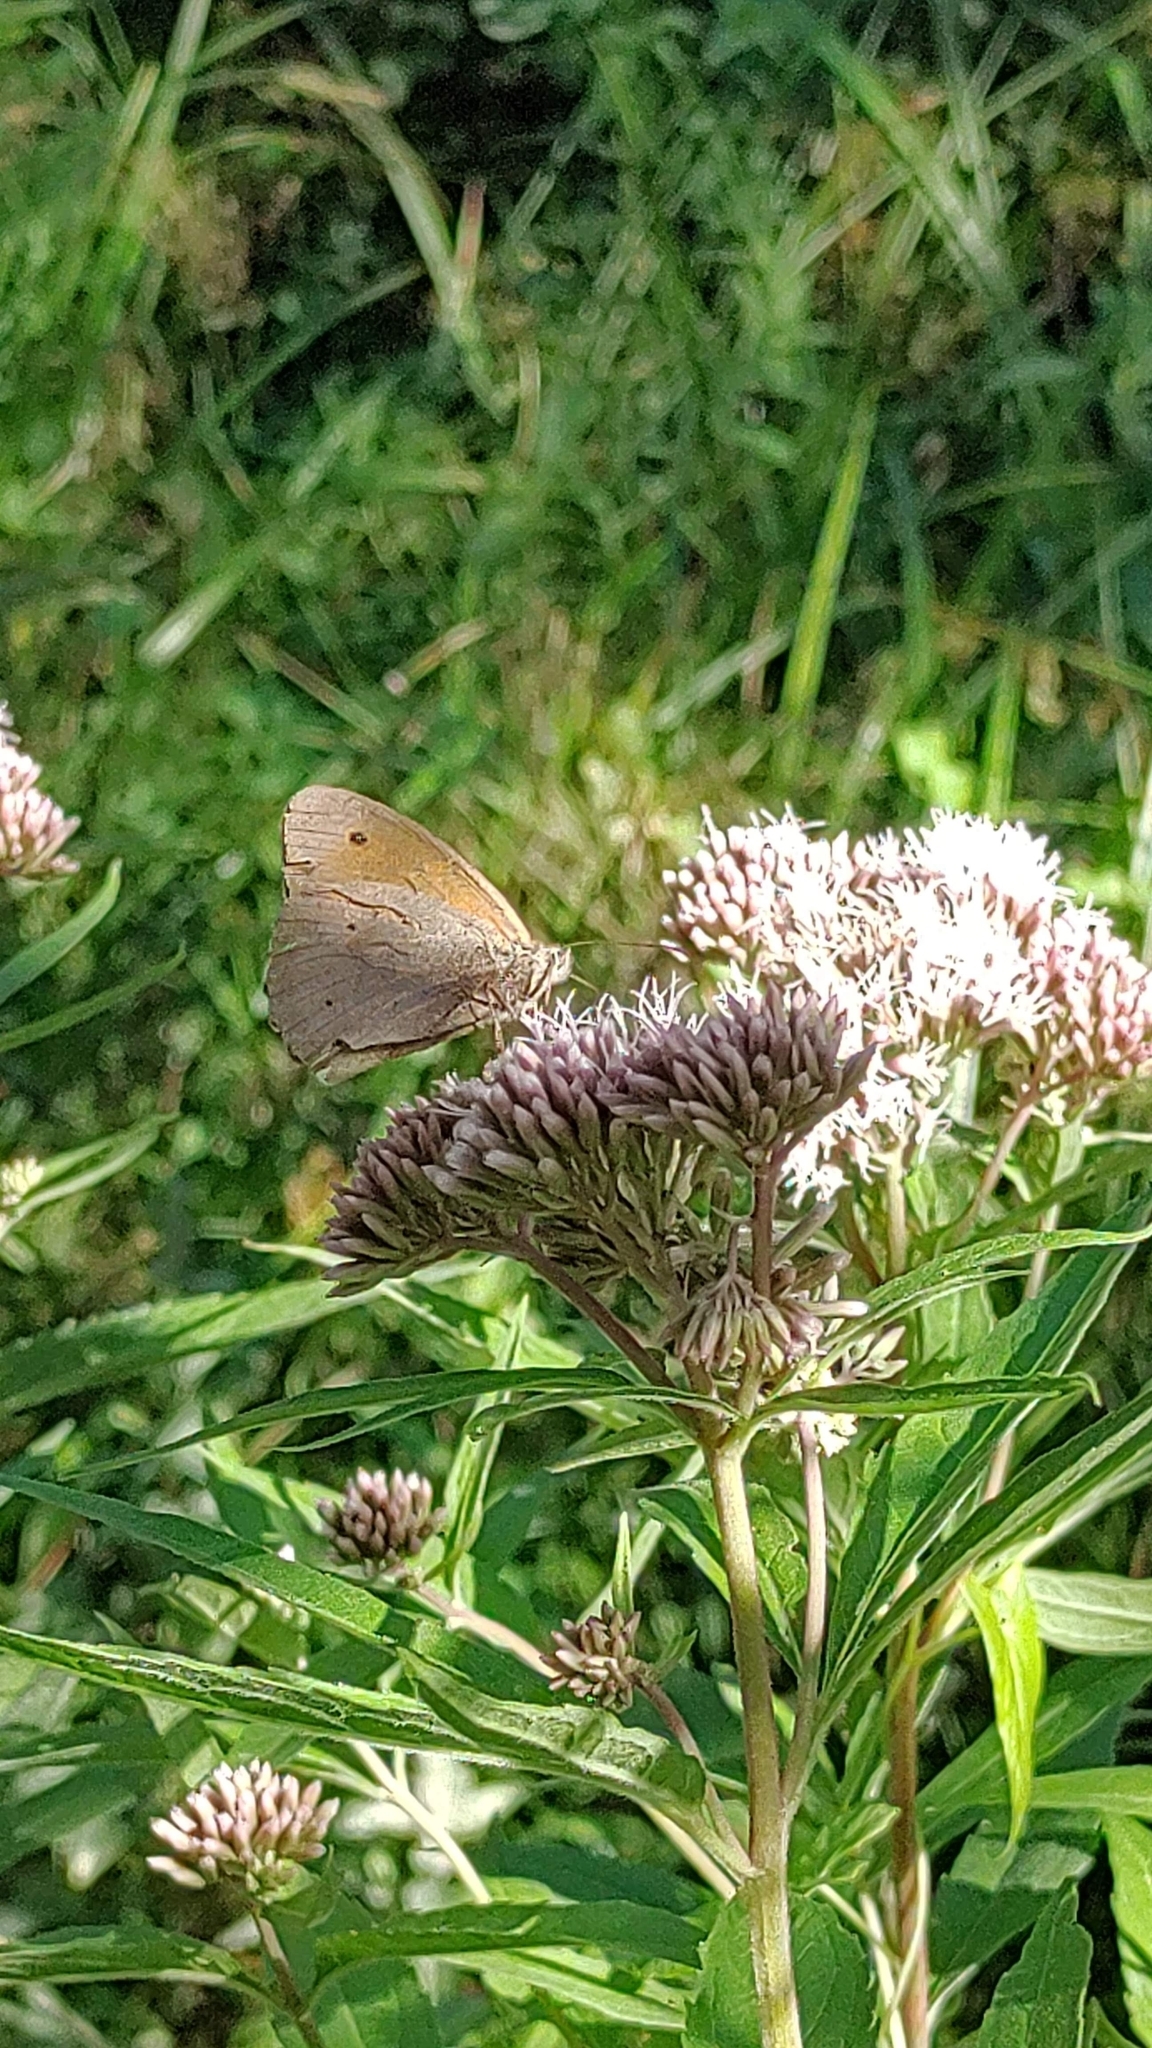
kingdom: Animalia
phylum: Arthropoda
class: Insecta
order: Lepidoptera
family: Nymphalidae
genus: Maniola
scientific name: Maniola jurtina
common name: Meadow brown
